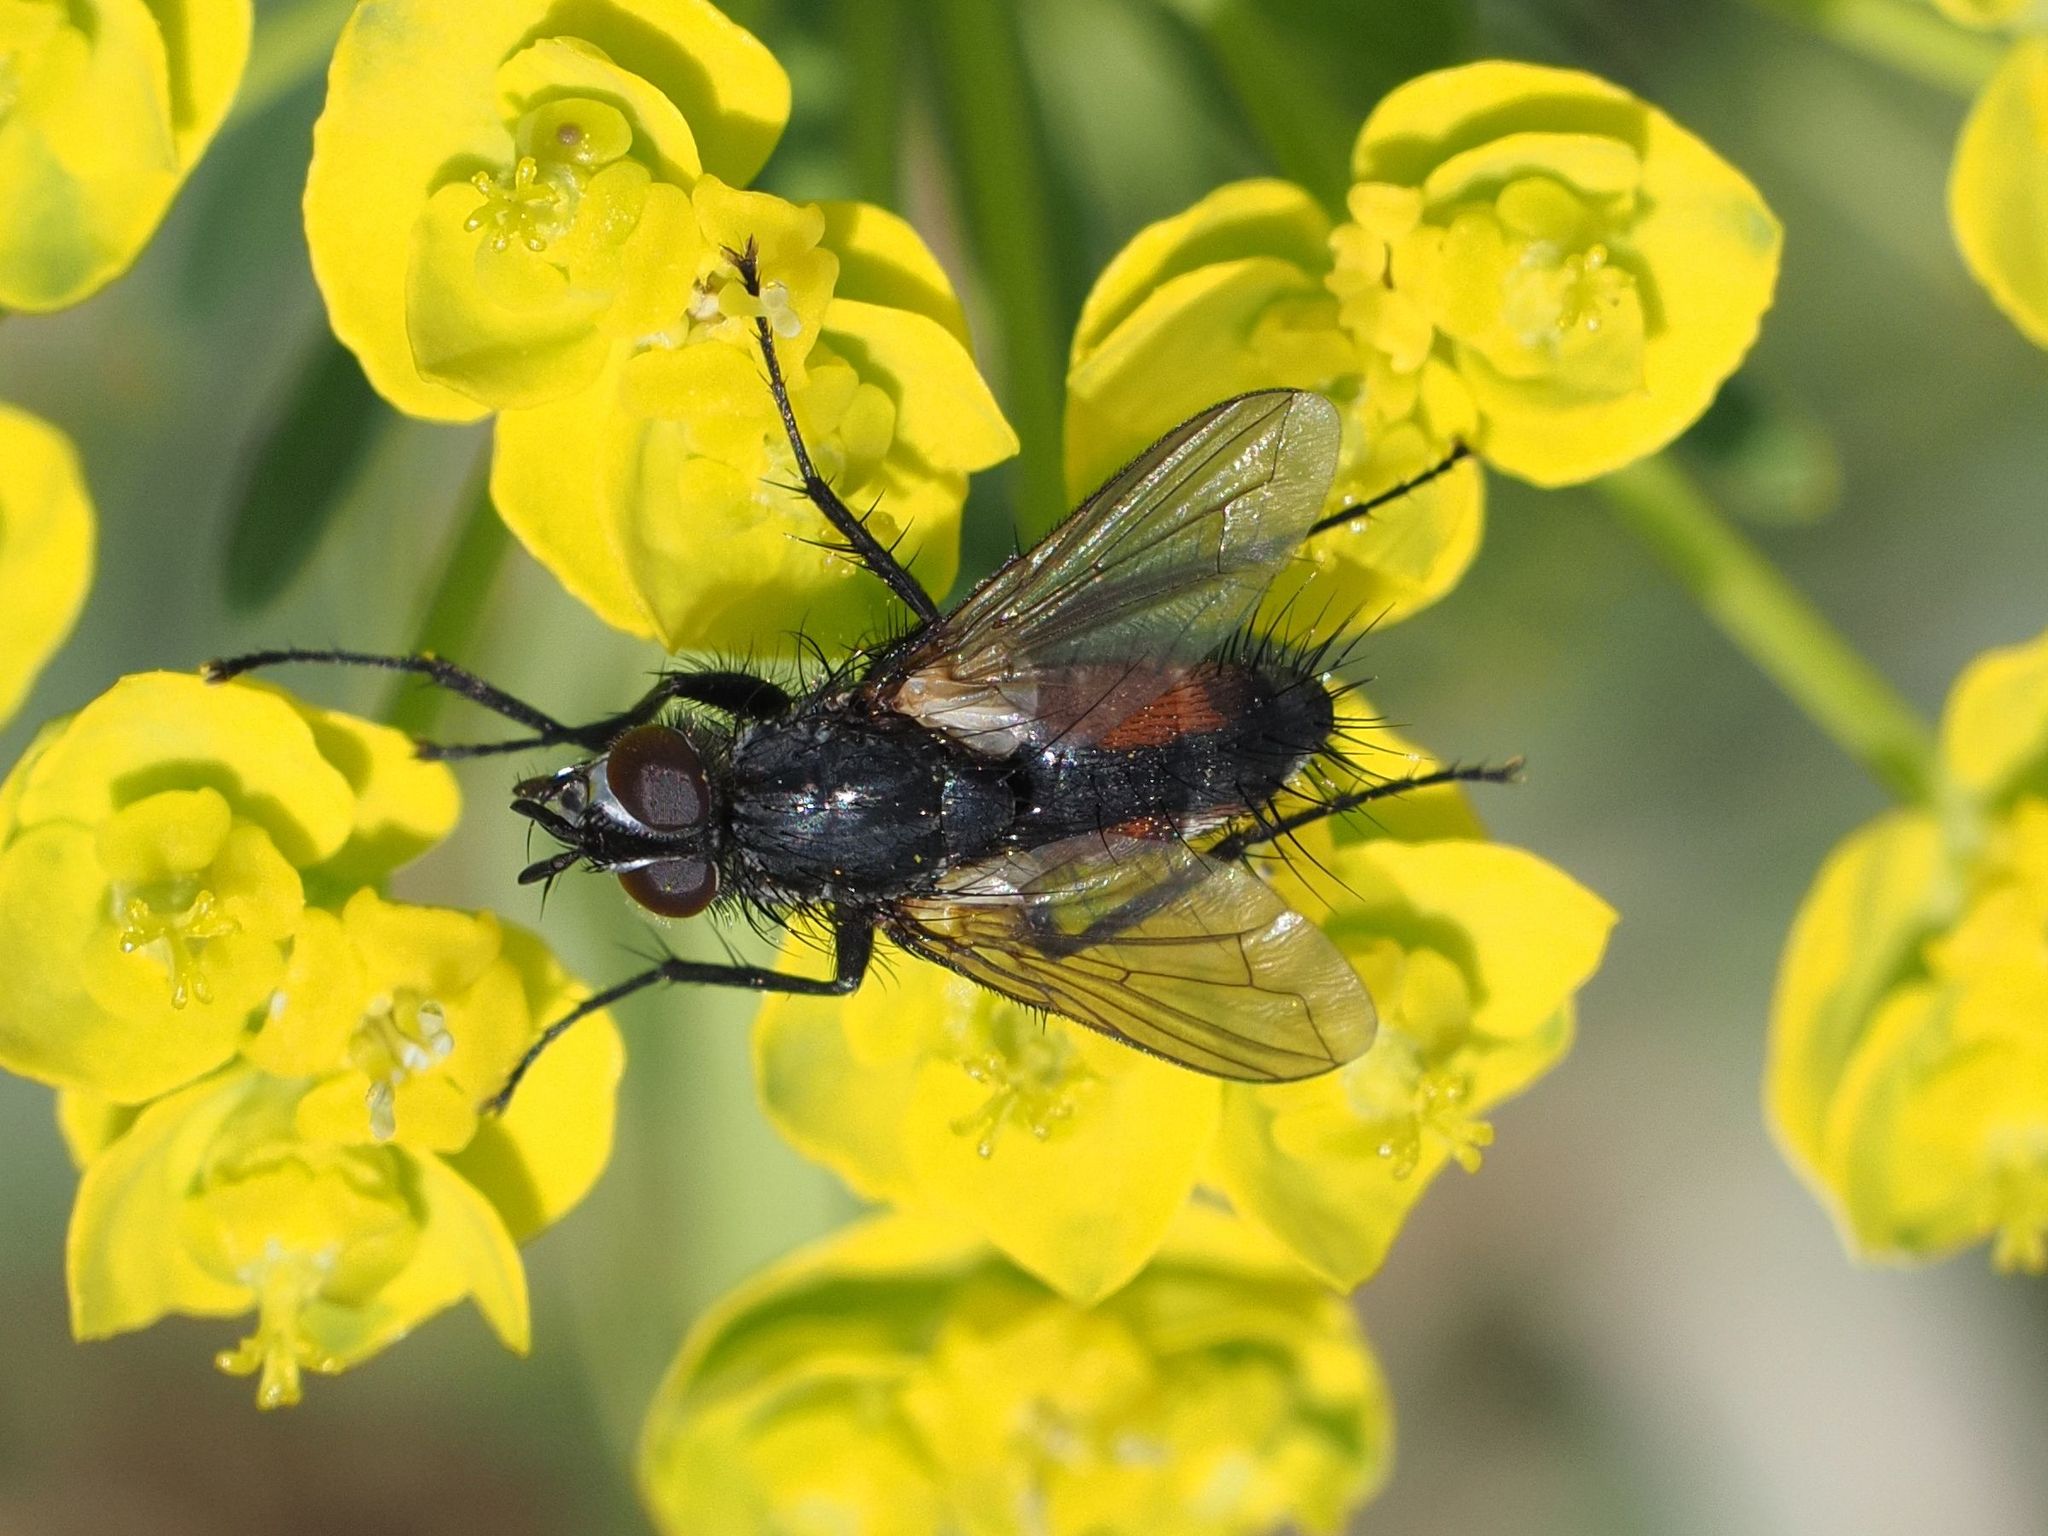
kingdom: Animalia
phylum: Arthropoda
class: Insecta
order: Diptera
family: Tachinidae
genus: Eriothrix
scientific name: Eriothrix rufomaculatus
